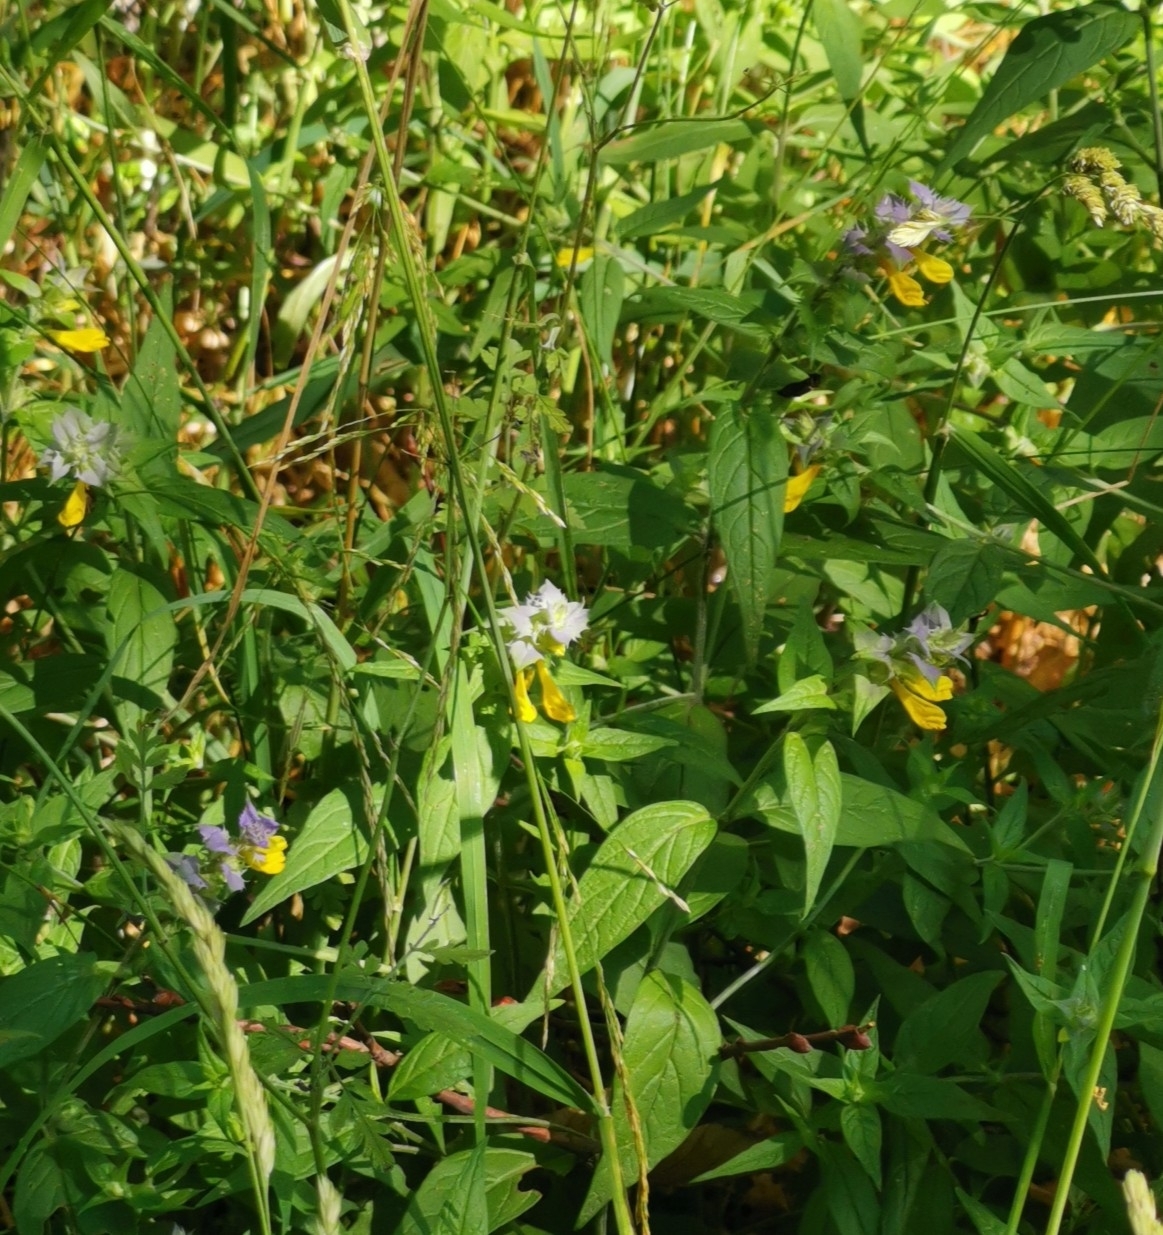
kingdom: Plantae
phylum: Tracheophyta
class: Magnoliopsida
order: Lamiales
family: Orobanchaceae
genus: Melampyrum
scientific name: Melampyrum nemorosum
